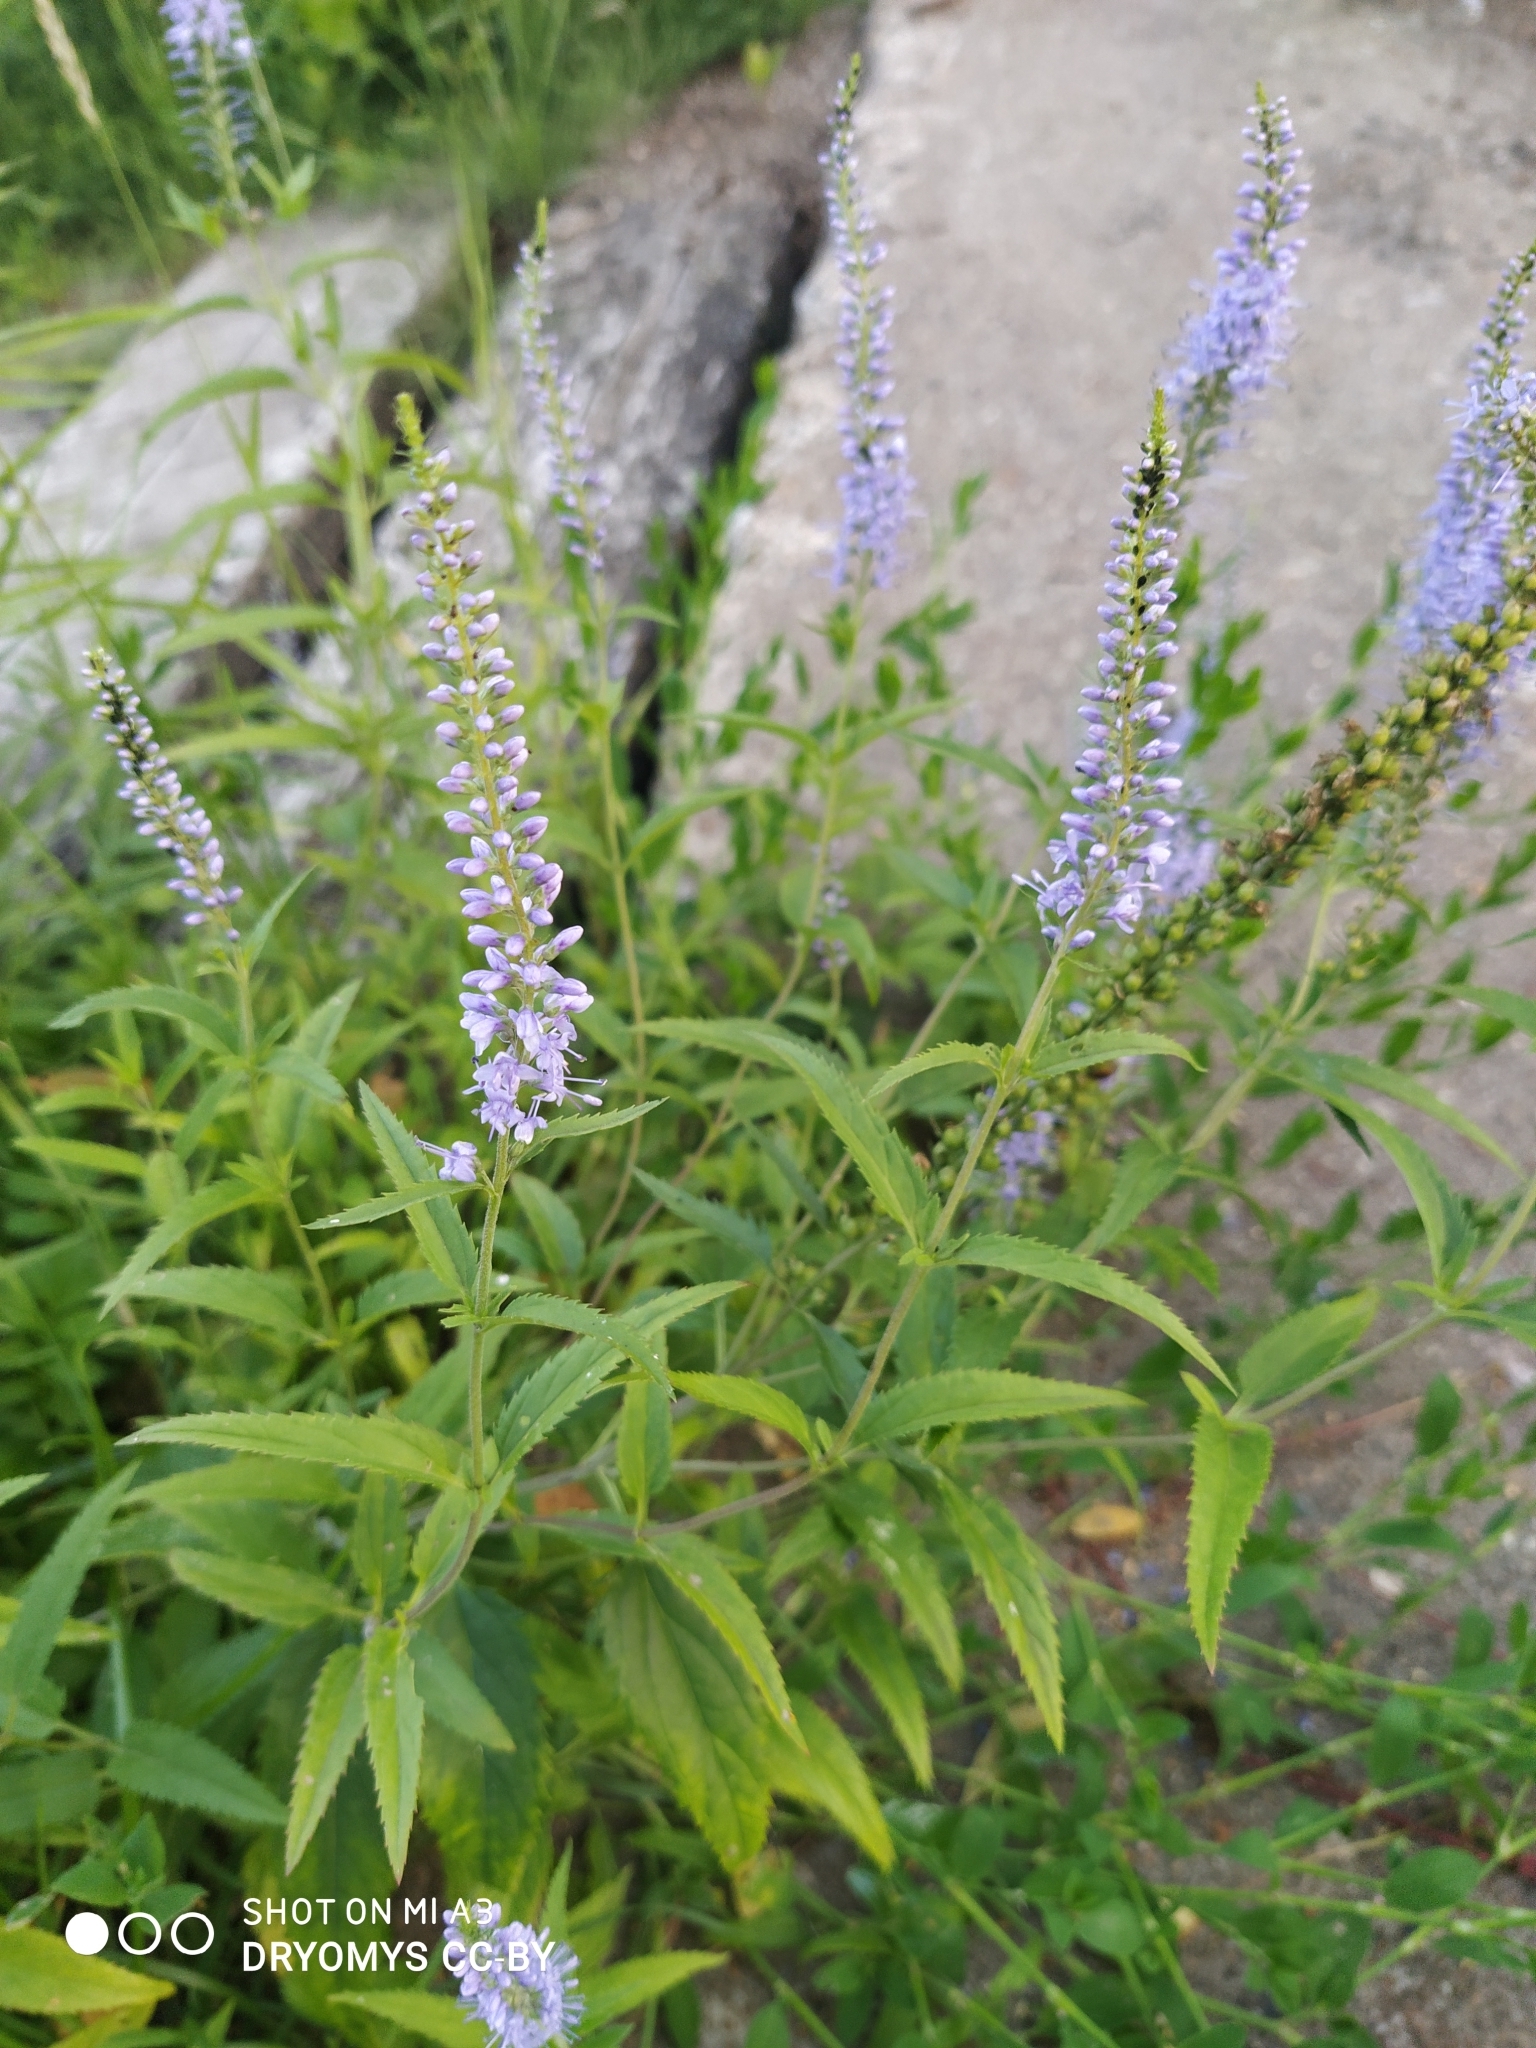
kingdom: Plantae
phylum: Tracheophyta
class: Magnoliopsida
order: Lamiales
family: Plantaginaceae
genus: Veronica
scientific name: Veronica longifolia
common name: Garden speedwell
